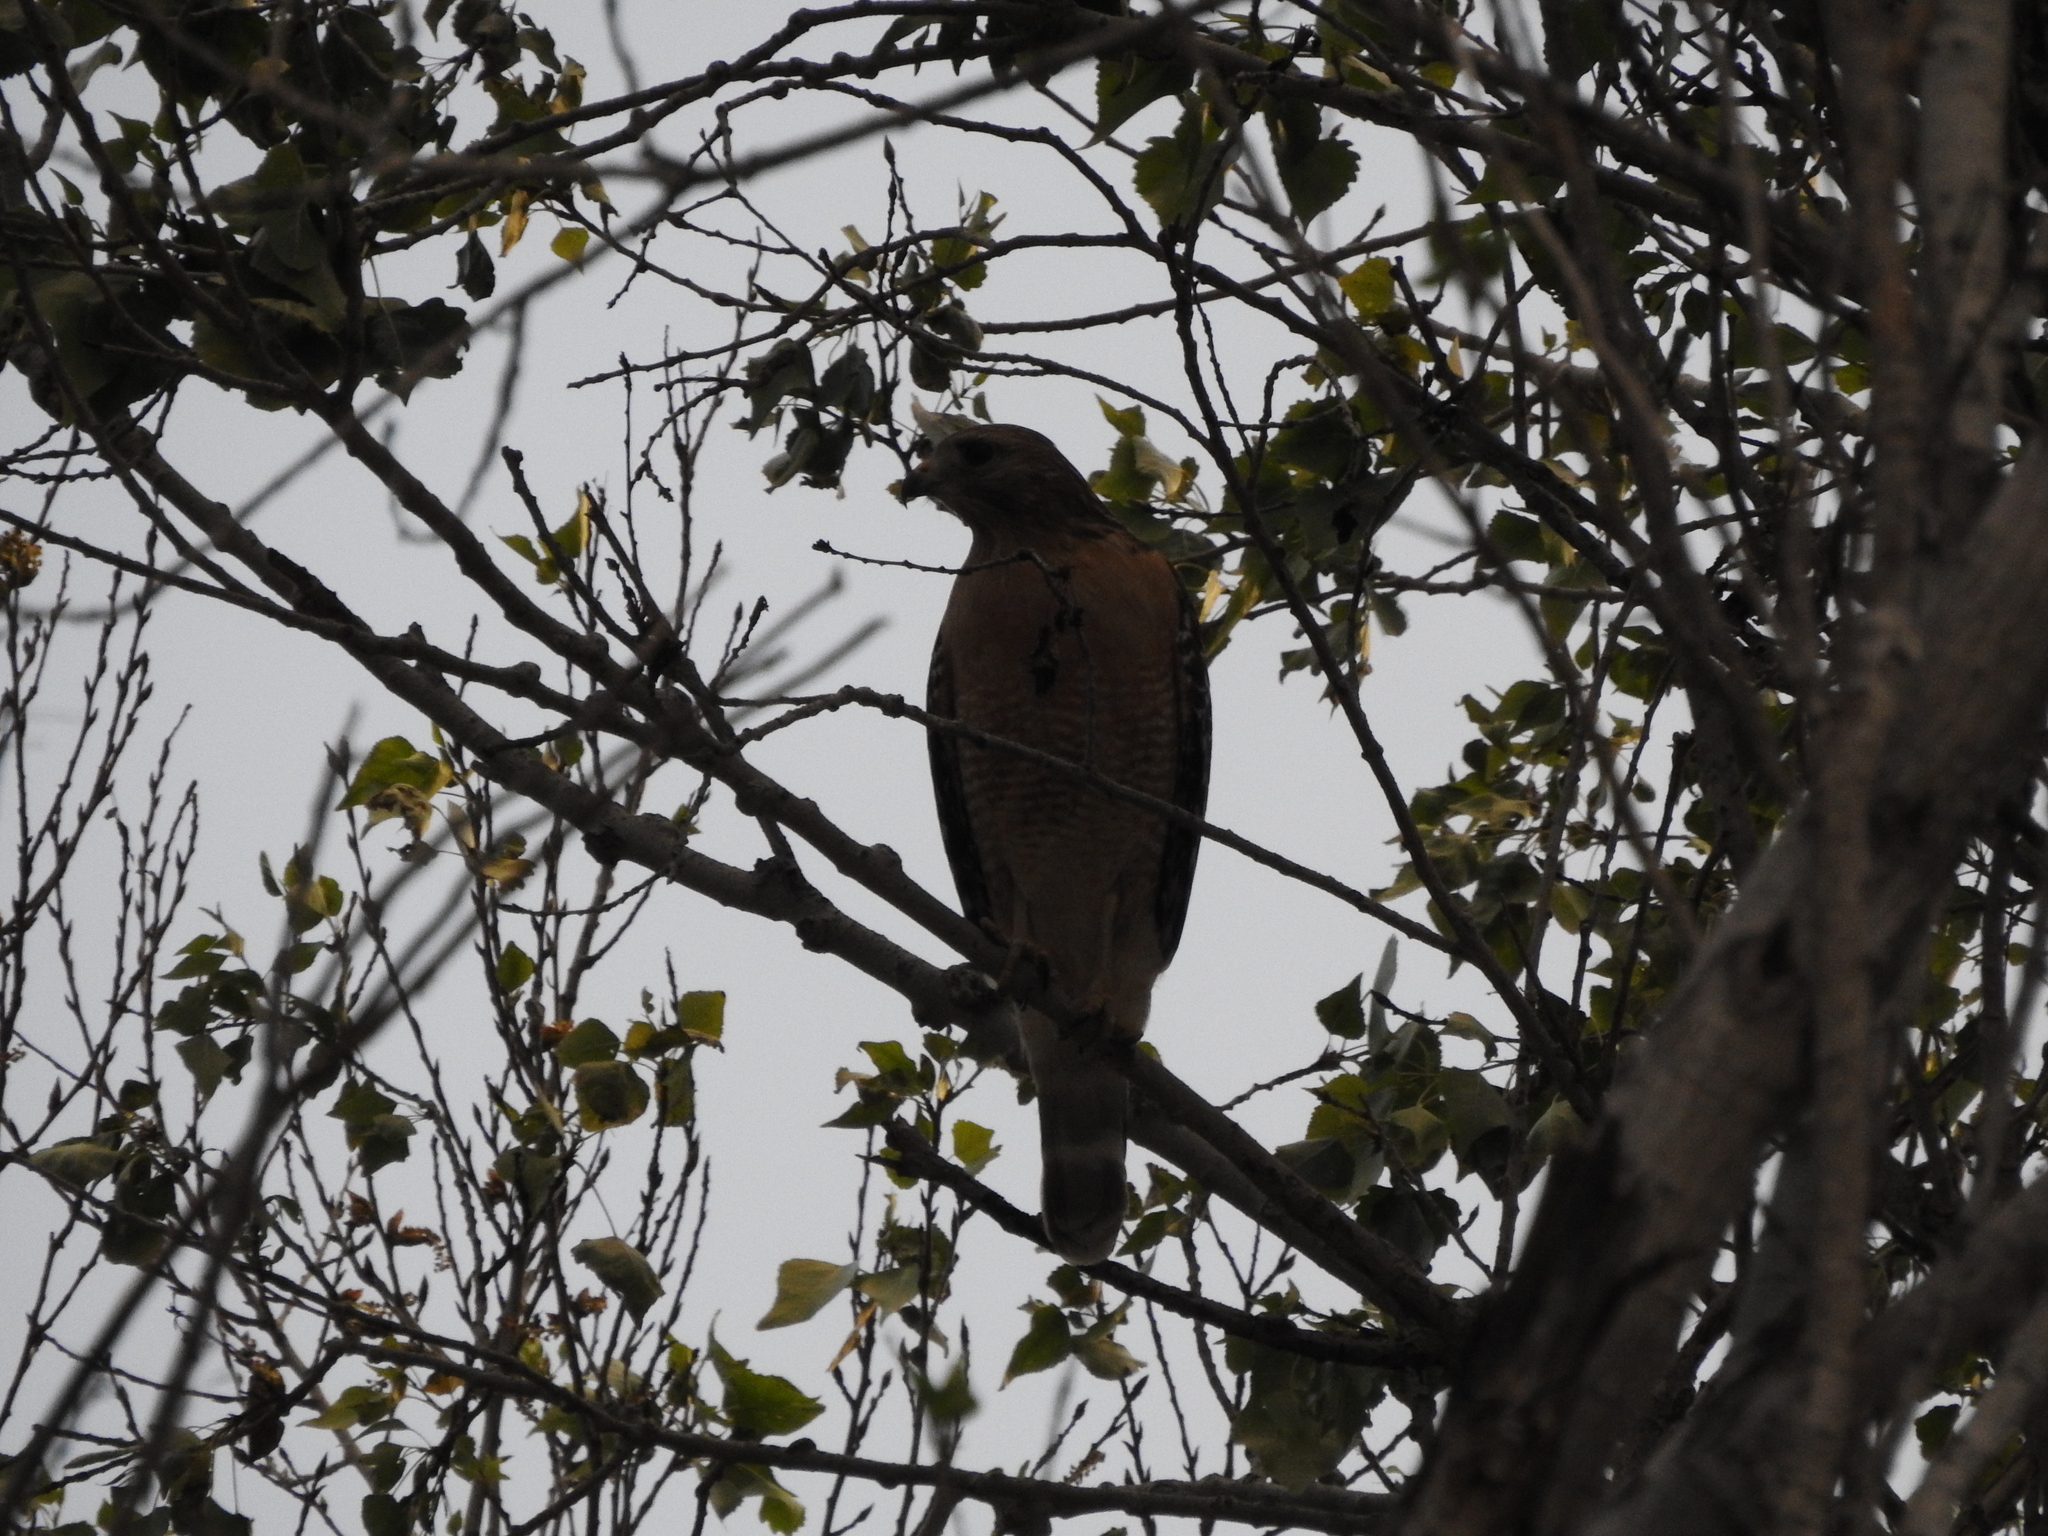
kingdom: Animalia
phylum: Chordata
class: Aves
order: Accipitriformes
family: Accipitridae
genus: Buteo
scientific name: Buteo lineatus
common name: Red-shouldered hawk
